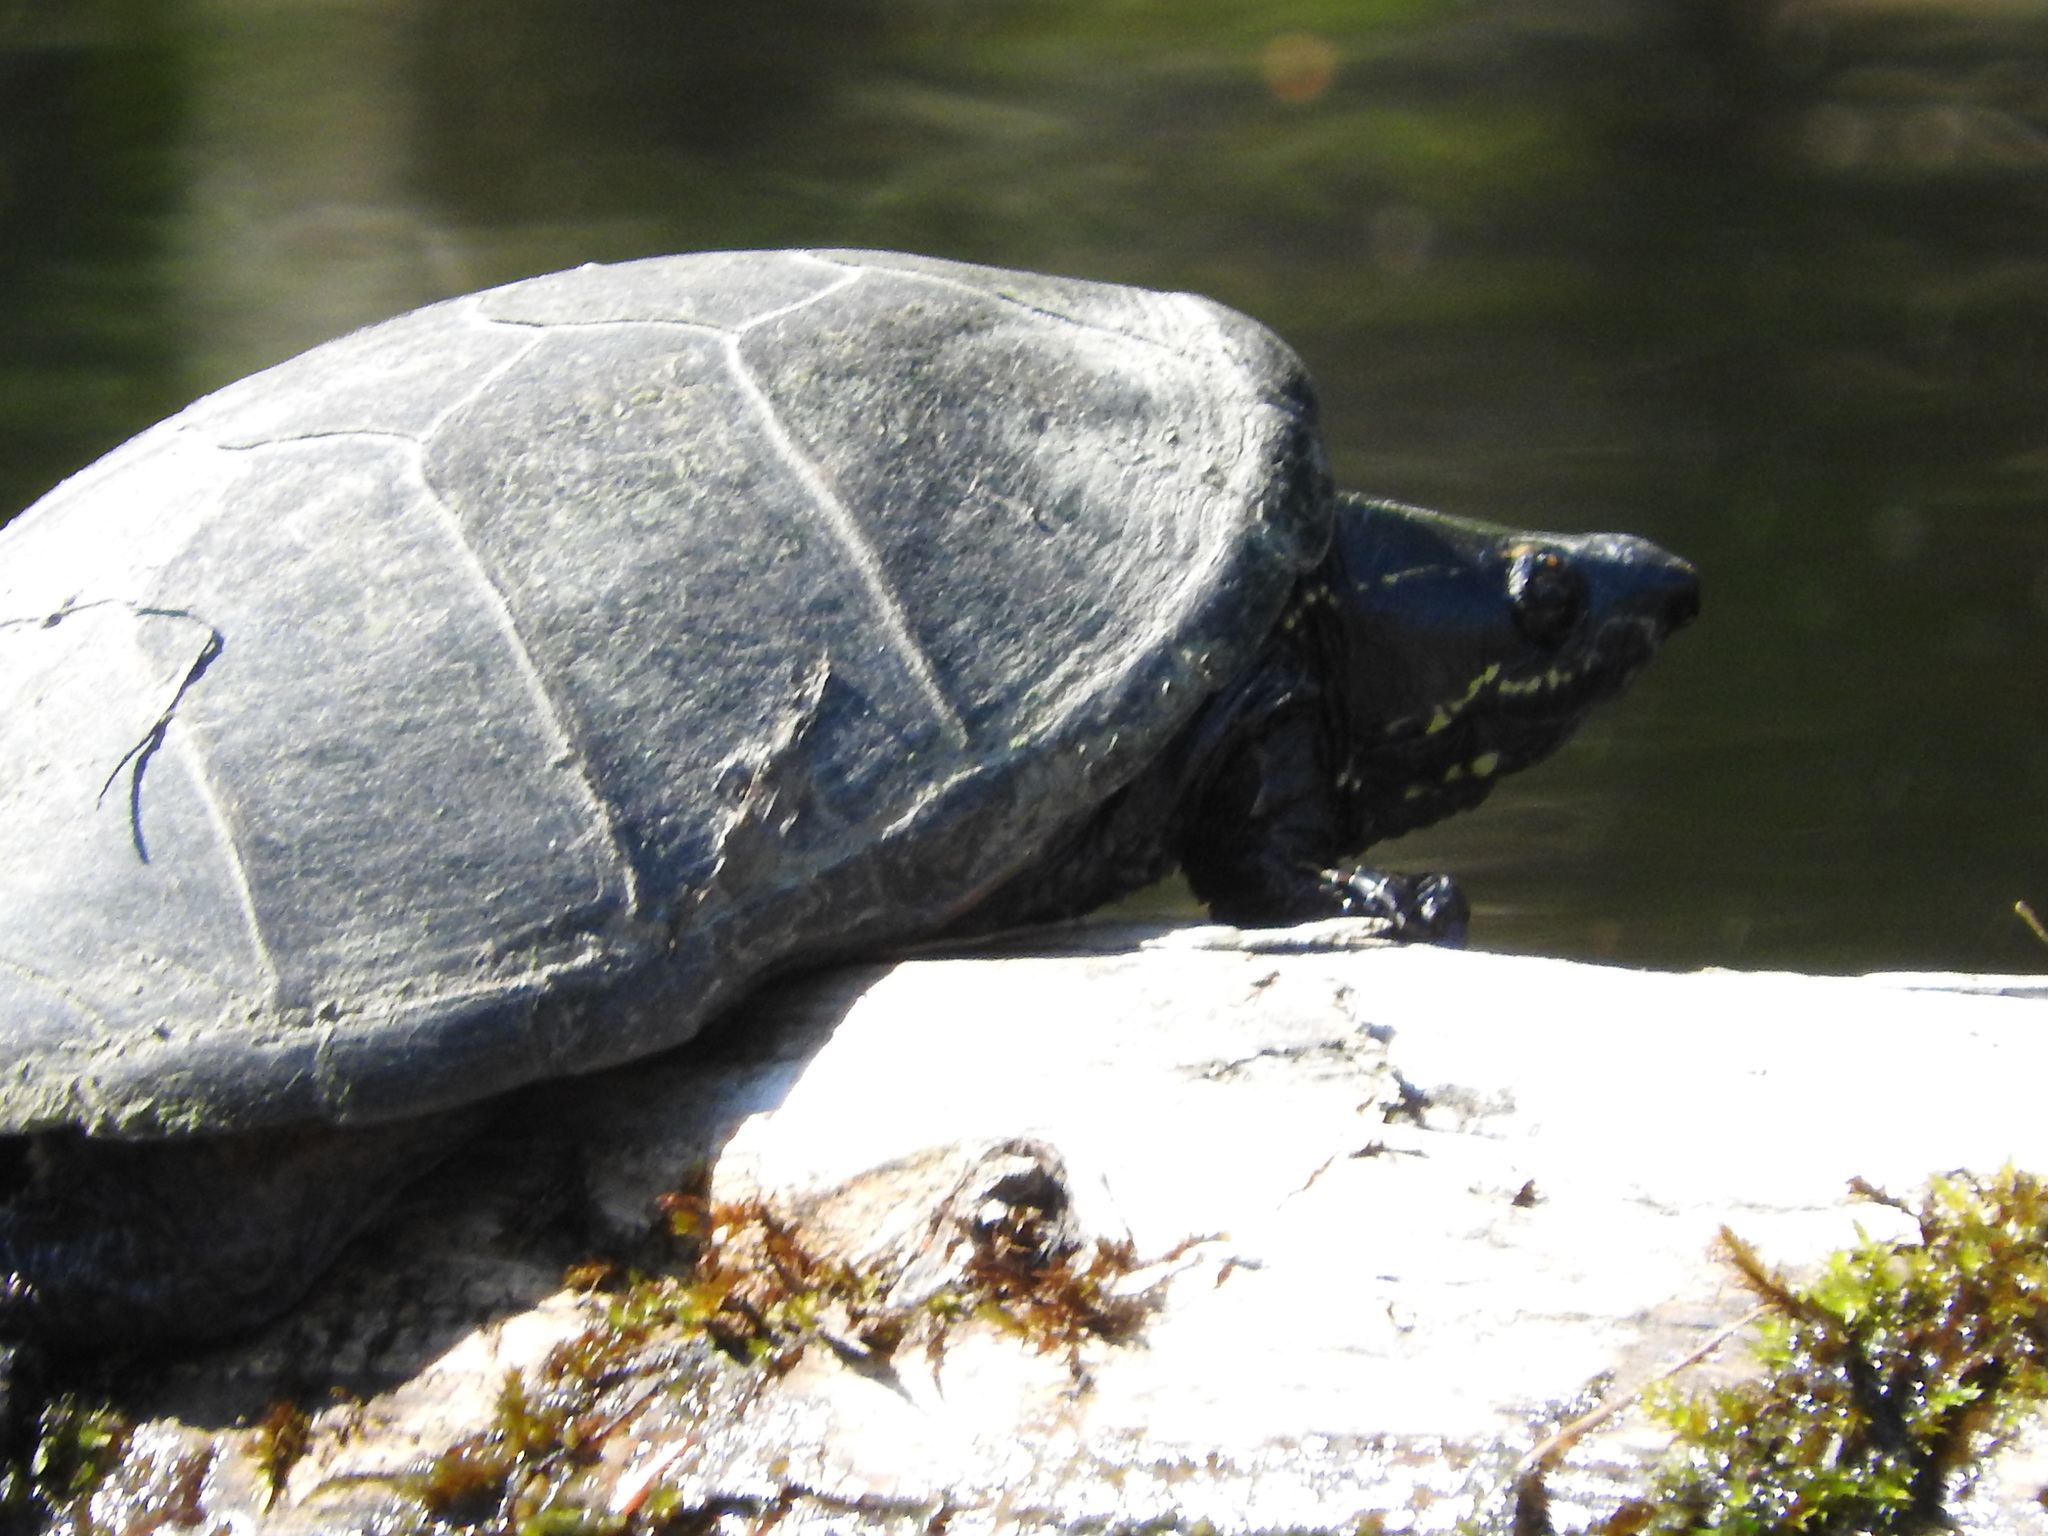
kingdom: Animalia
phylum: Chordata
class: Testudines
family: Kinosternidae
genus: Sternotherus
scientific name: Sternotherus odoratus
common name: Common musk turtle
